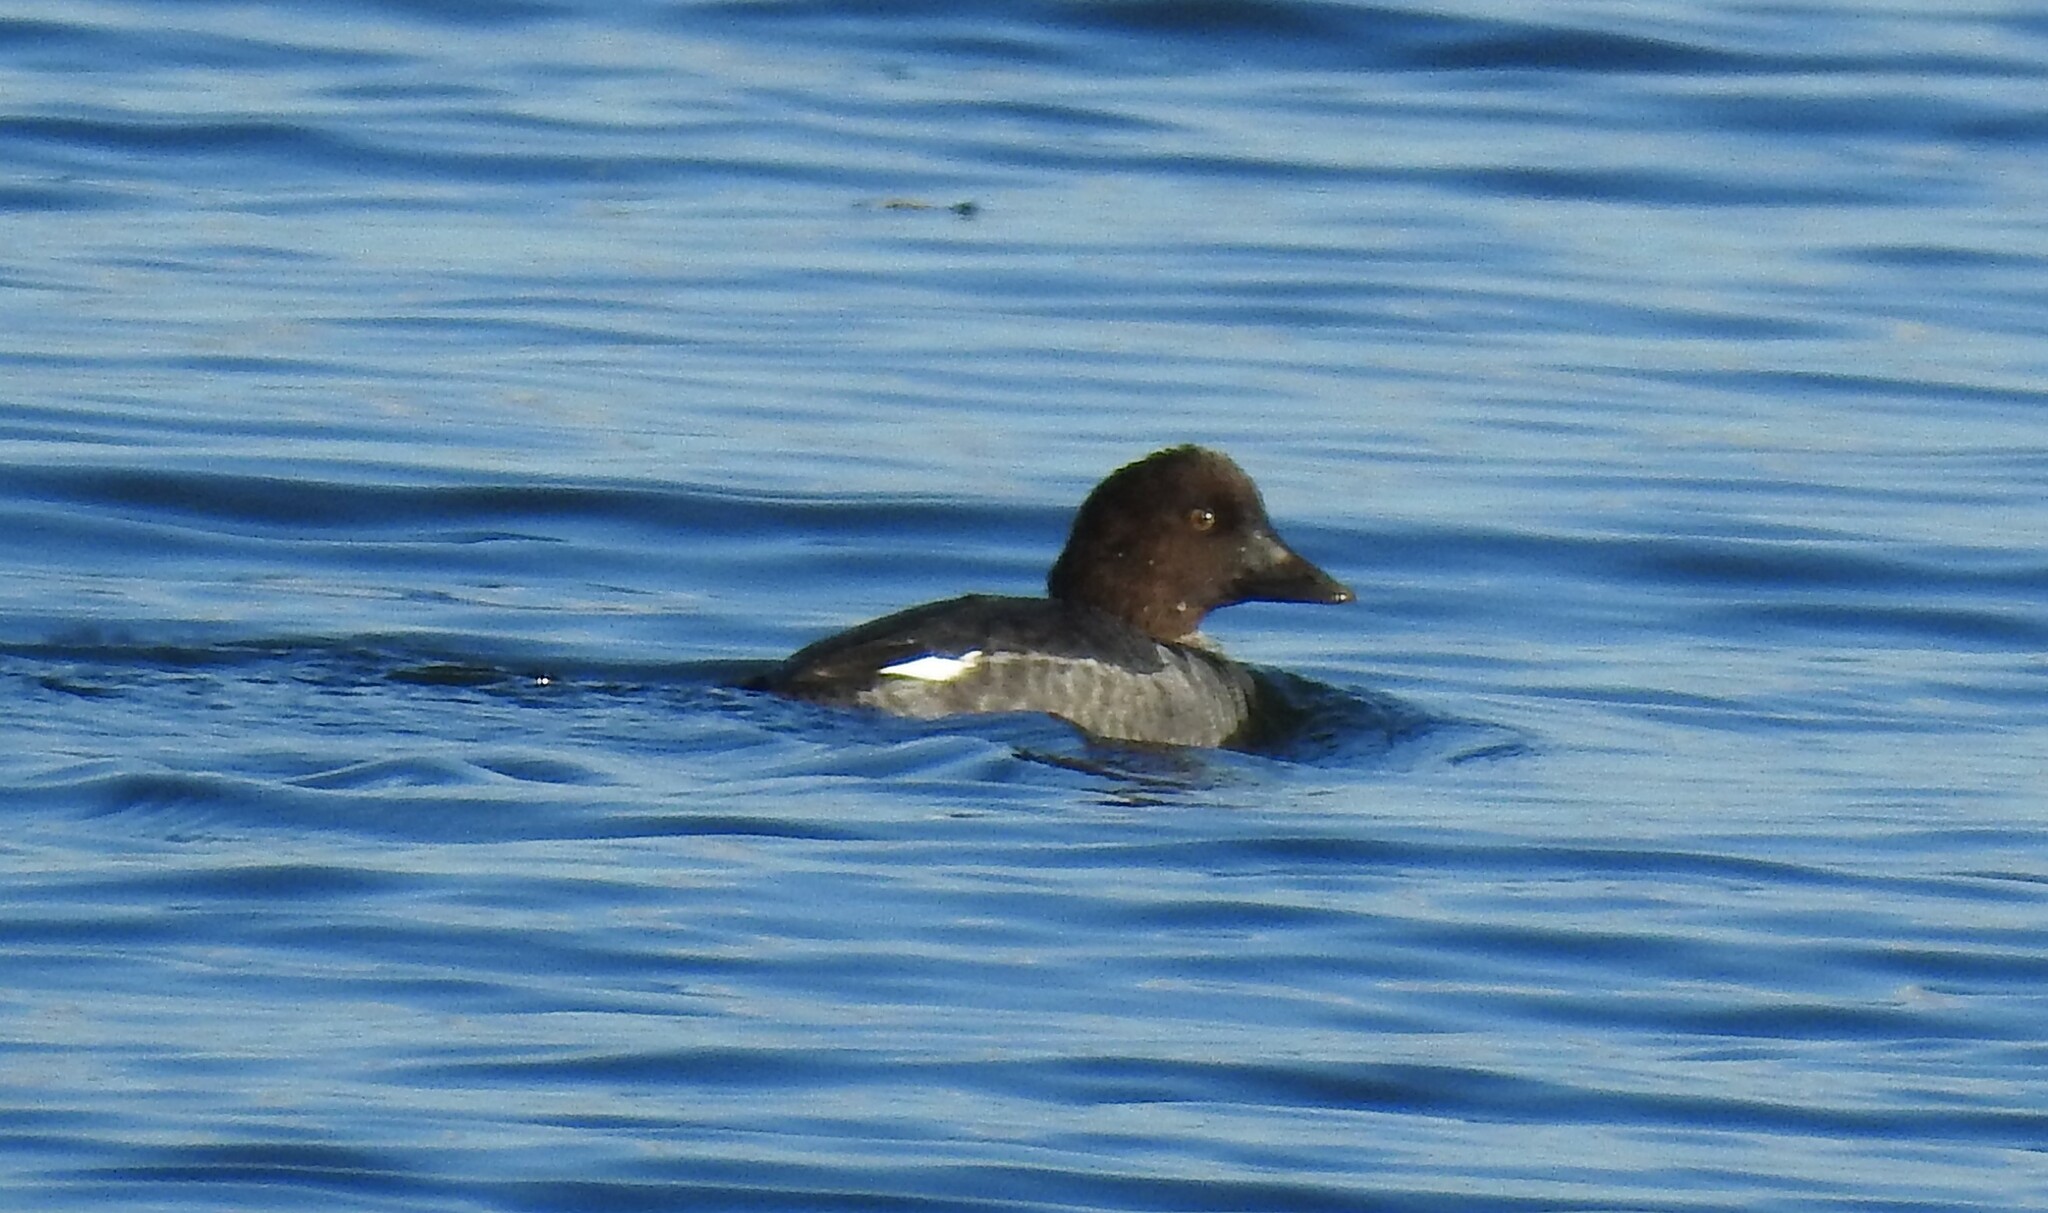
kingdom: Animalia
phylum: Chordata
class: Aves
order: Anseriformes
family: Anatidae
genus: Bucephala
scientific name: Bucephala clangula
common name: Common goldeneye
